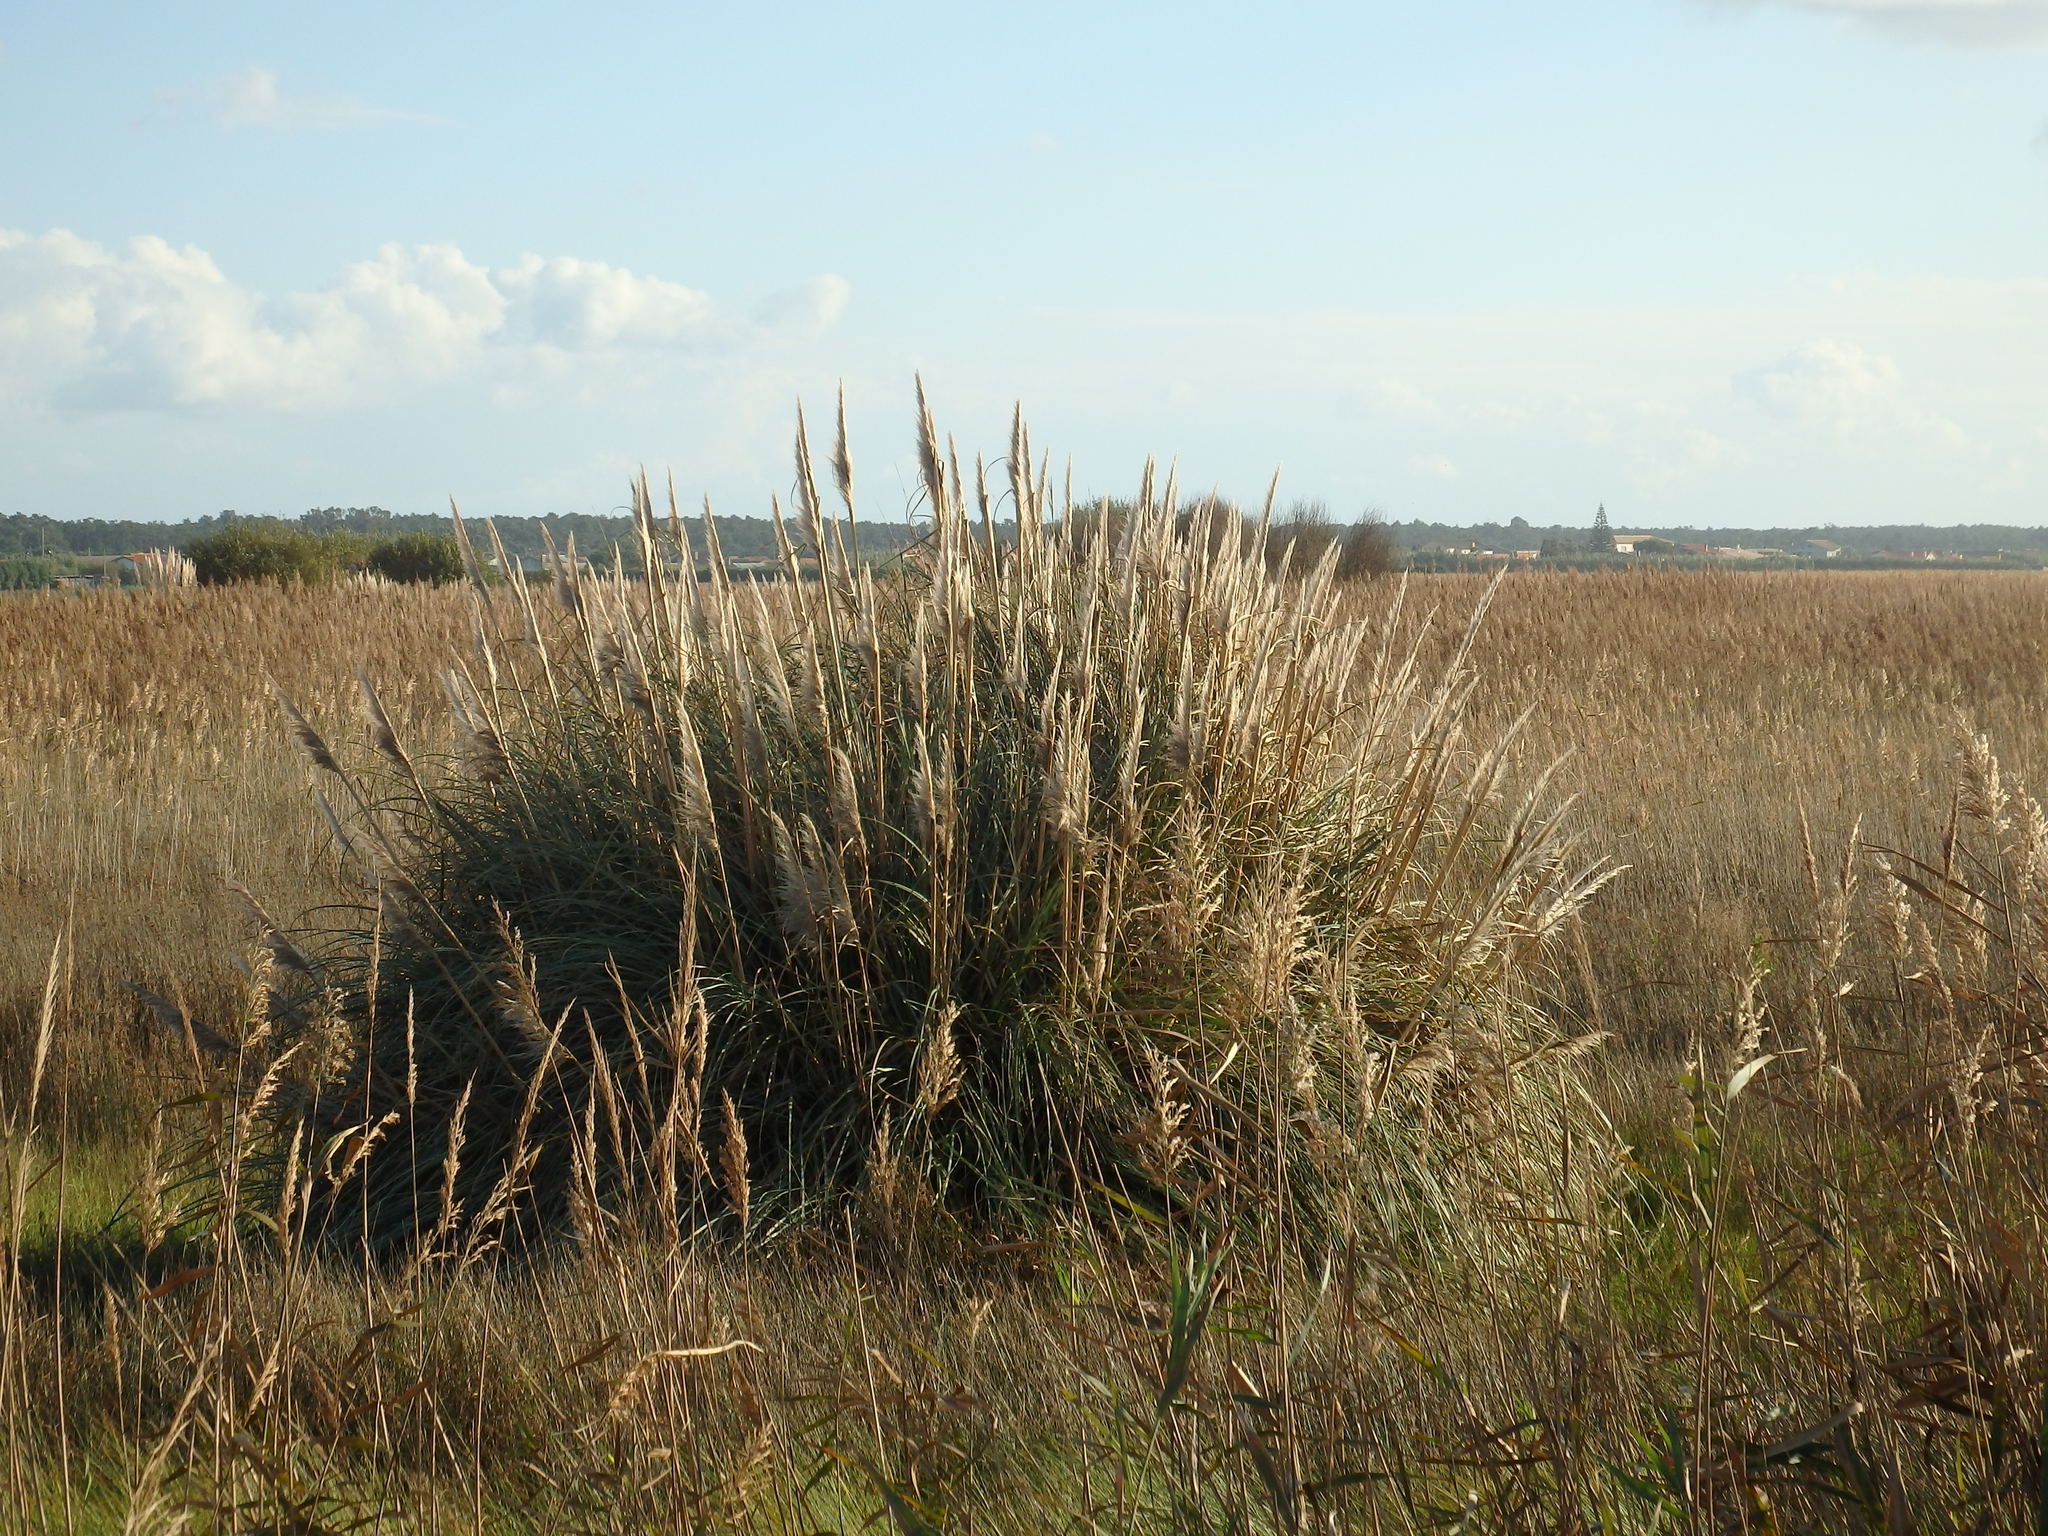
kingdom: Plantae
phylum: Tracheophyta
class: Liliopsida
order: Poales
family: Poaceae
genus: Cortaderia
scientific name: Cortaderia selloana
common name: Uruguayan pampas grass
